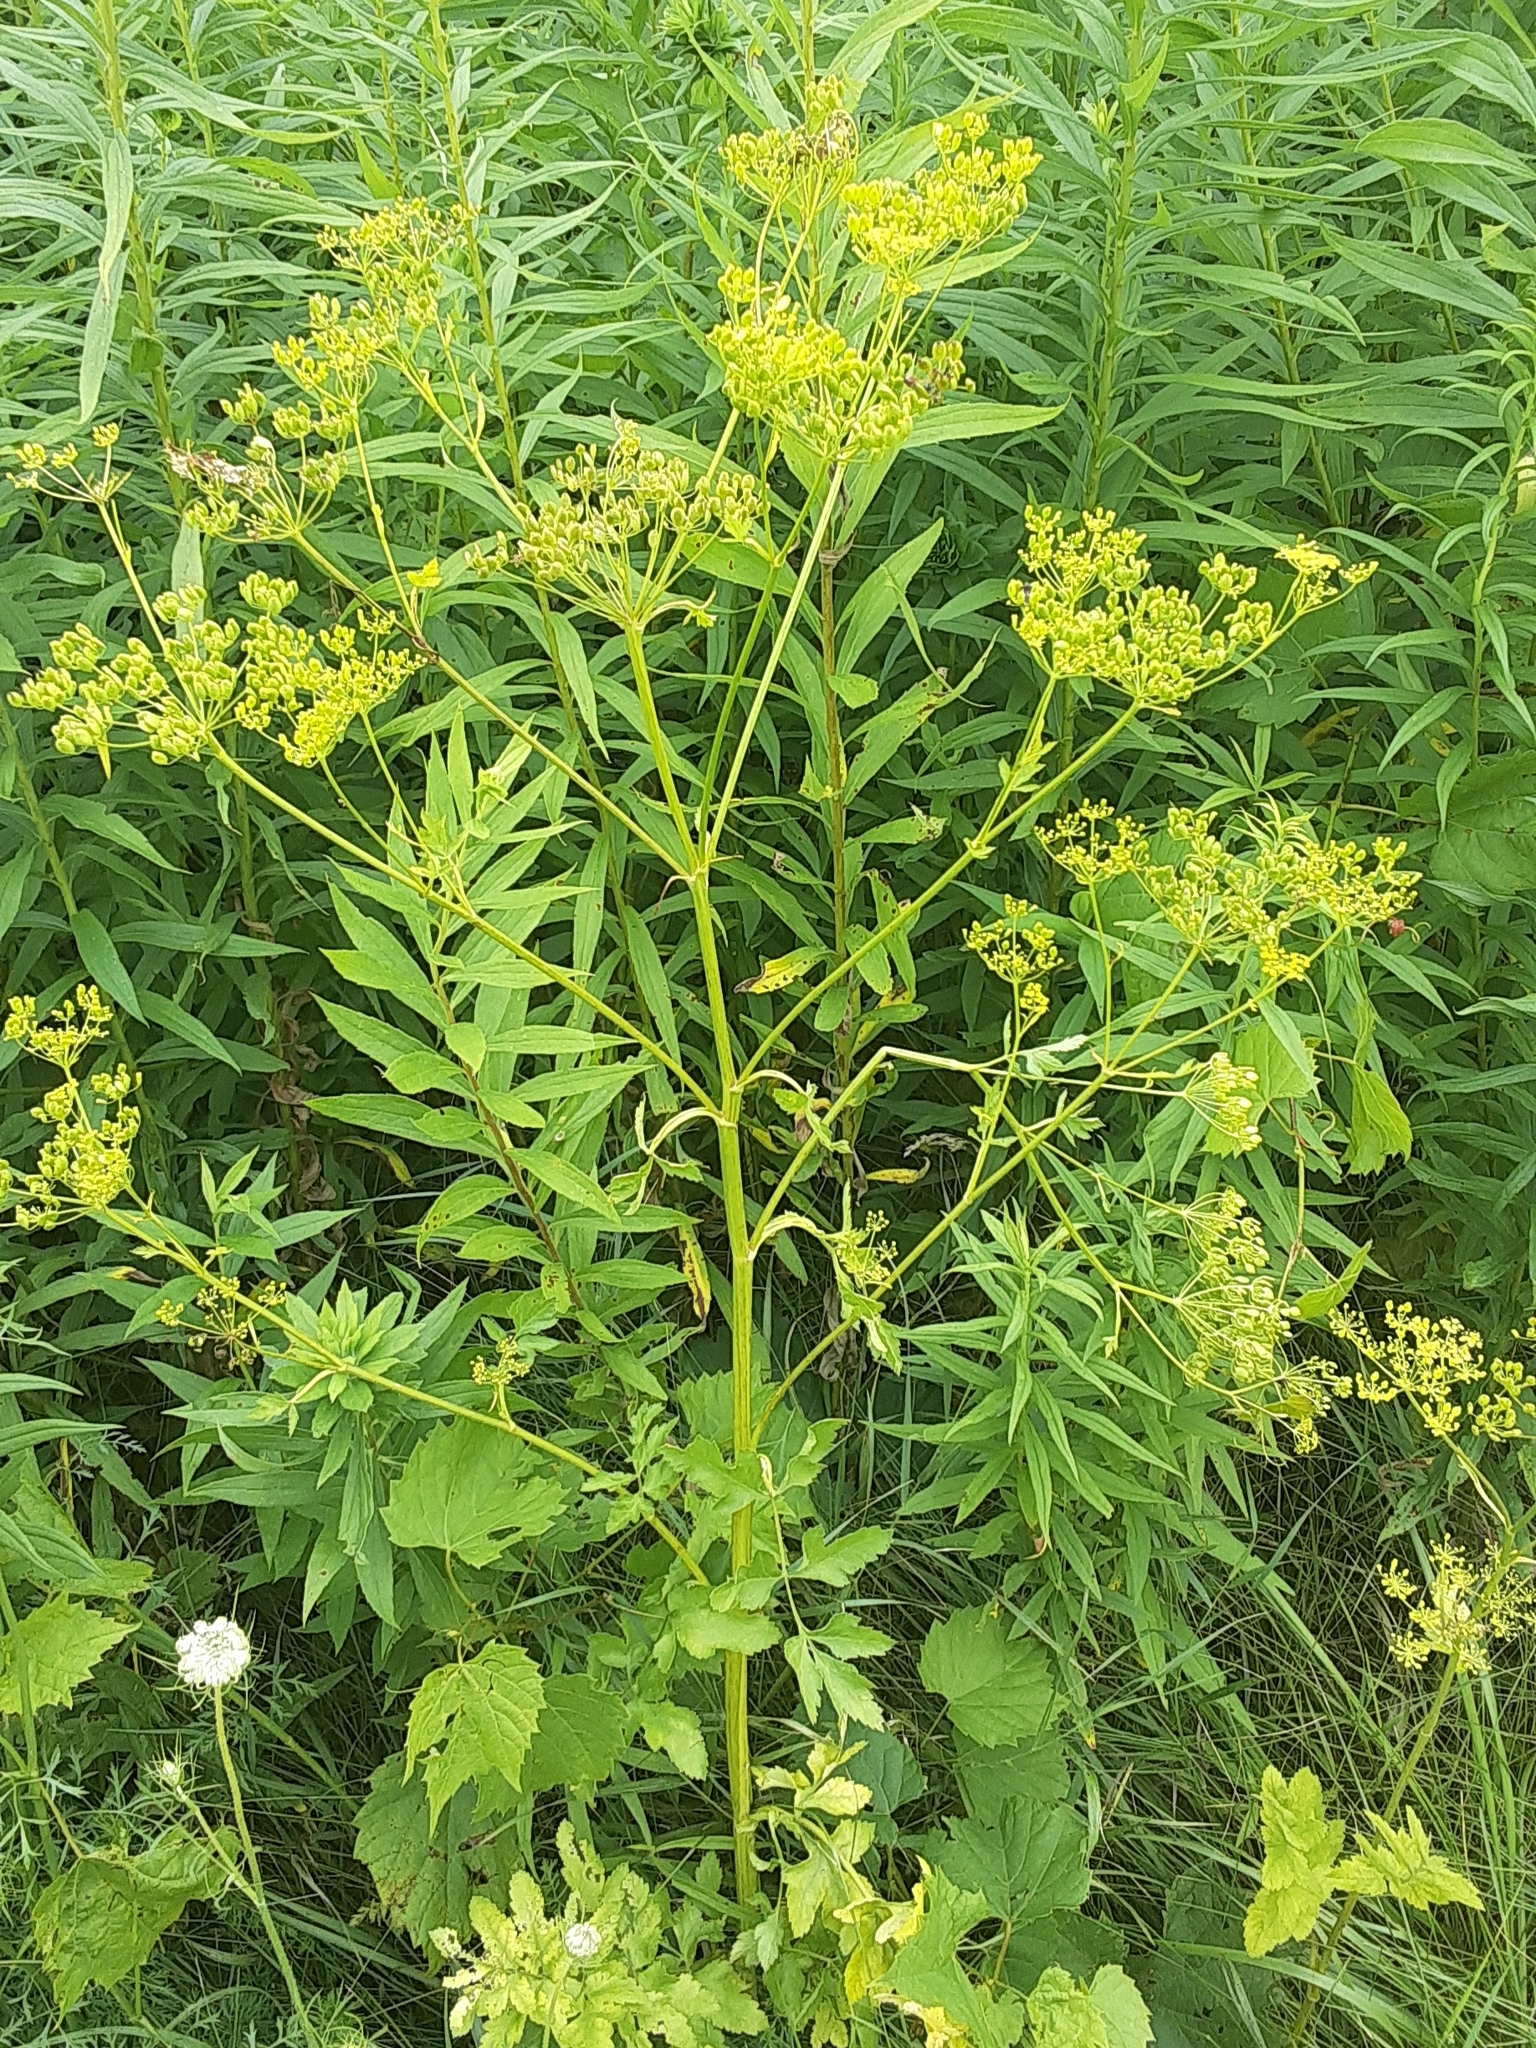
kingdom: Plantae
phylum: Tracheophyta
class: Magnoliopsida
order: Apiales
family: Apiaceae
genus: Pastinaca
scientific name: Pastinaca sativa
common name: Wild parsnip
